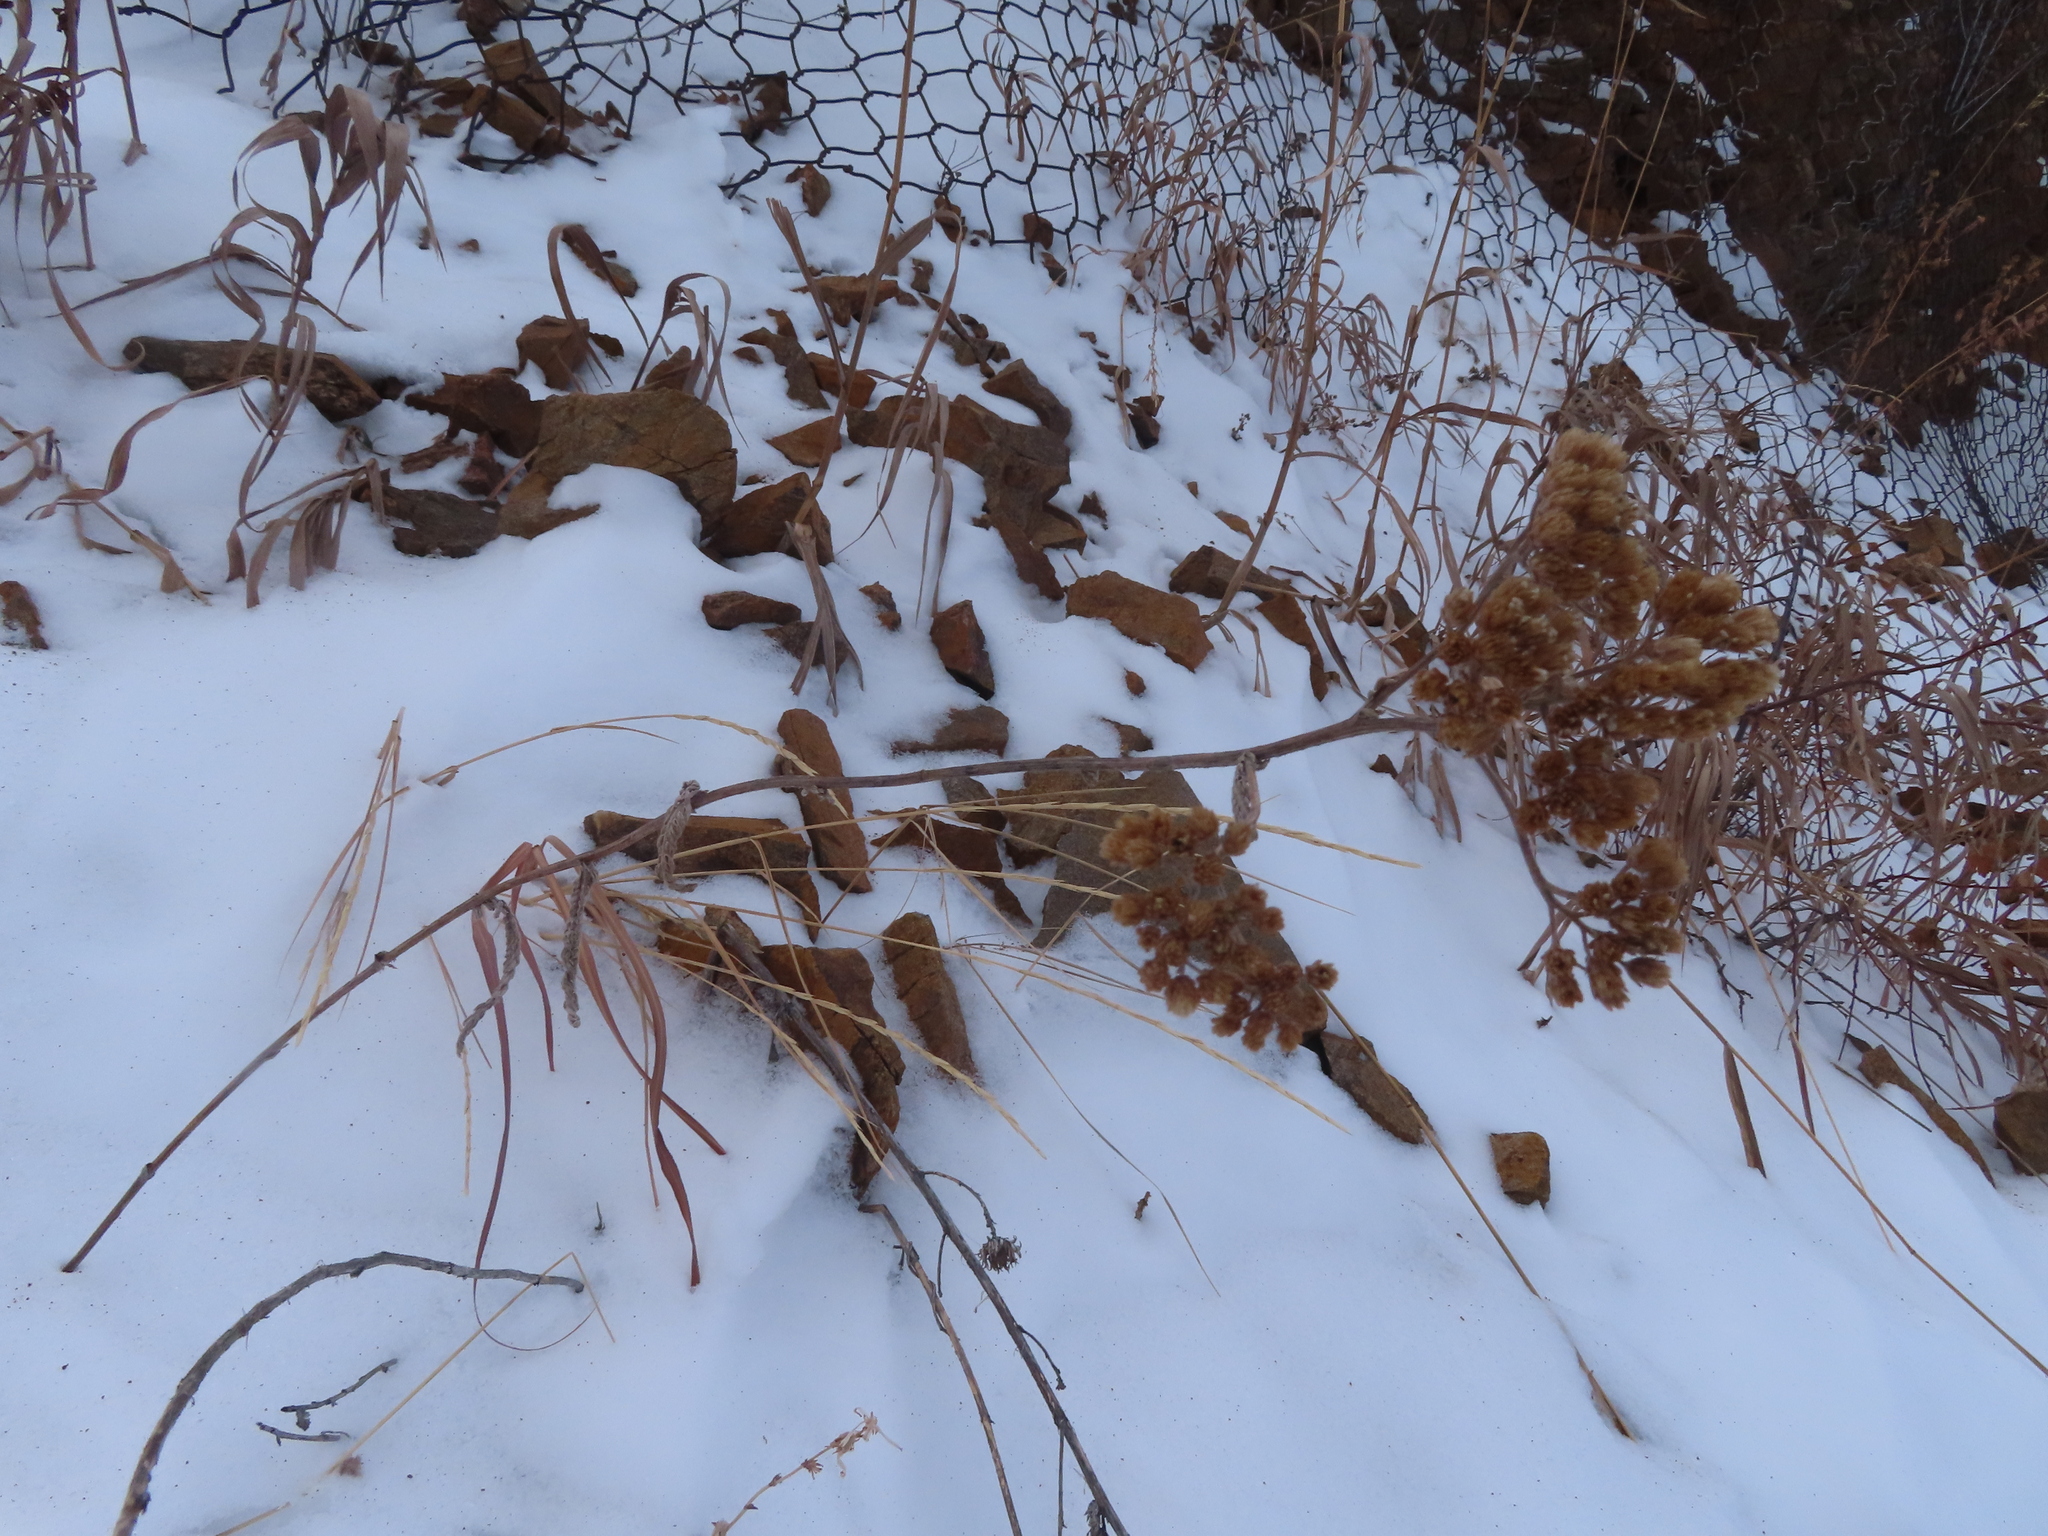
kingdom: Plantae
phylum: Tracheophyta
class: Magnoliopsida
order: Asterales
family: Asteraceae
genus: Achillea
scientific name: Achillea millefolium
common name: Yarrow
